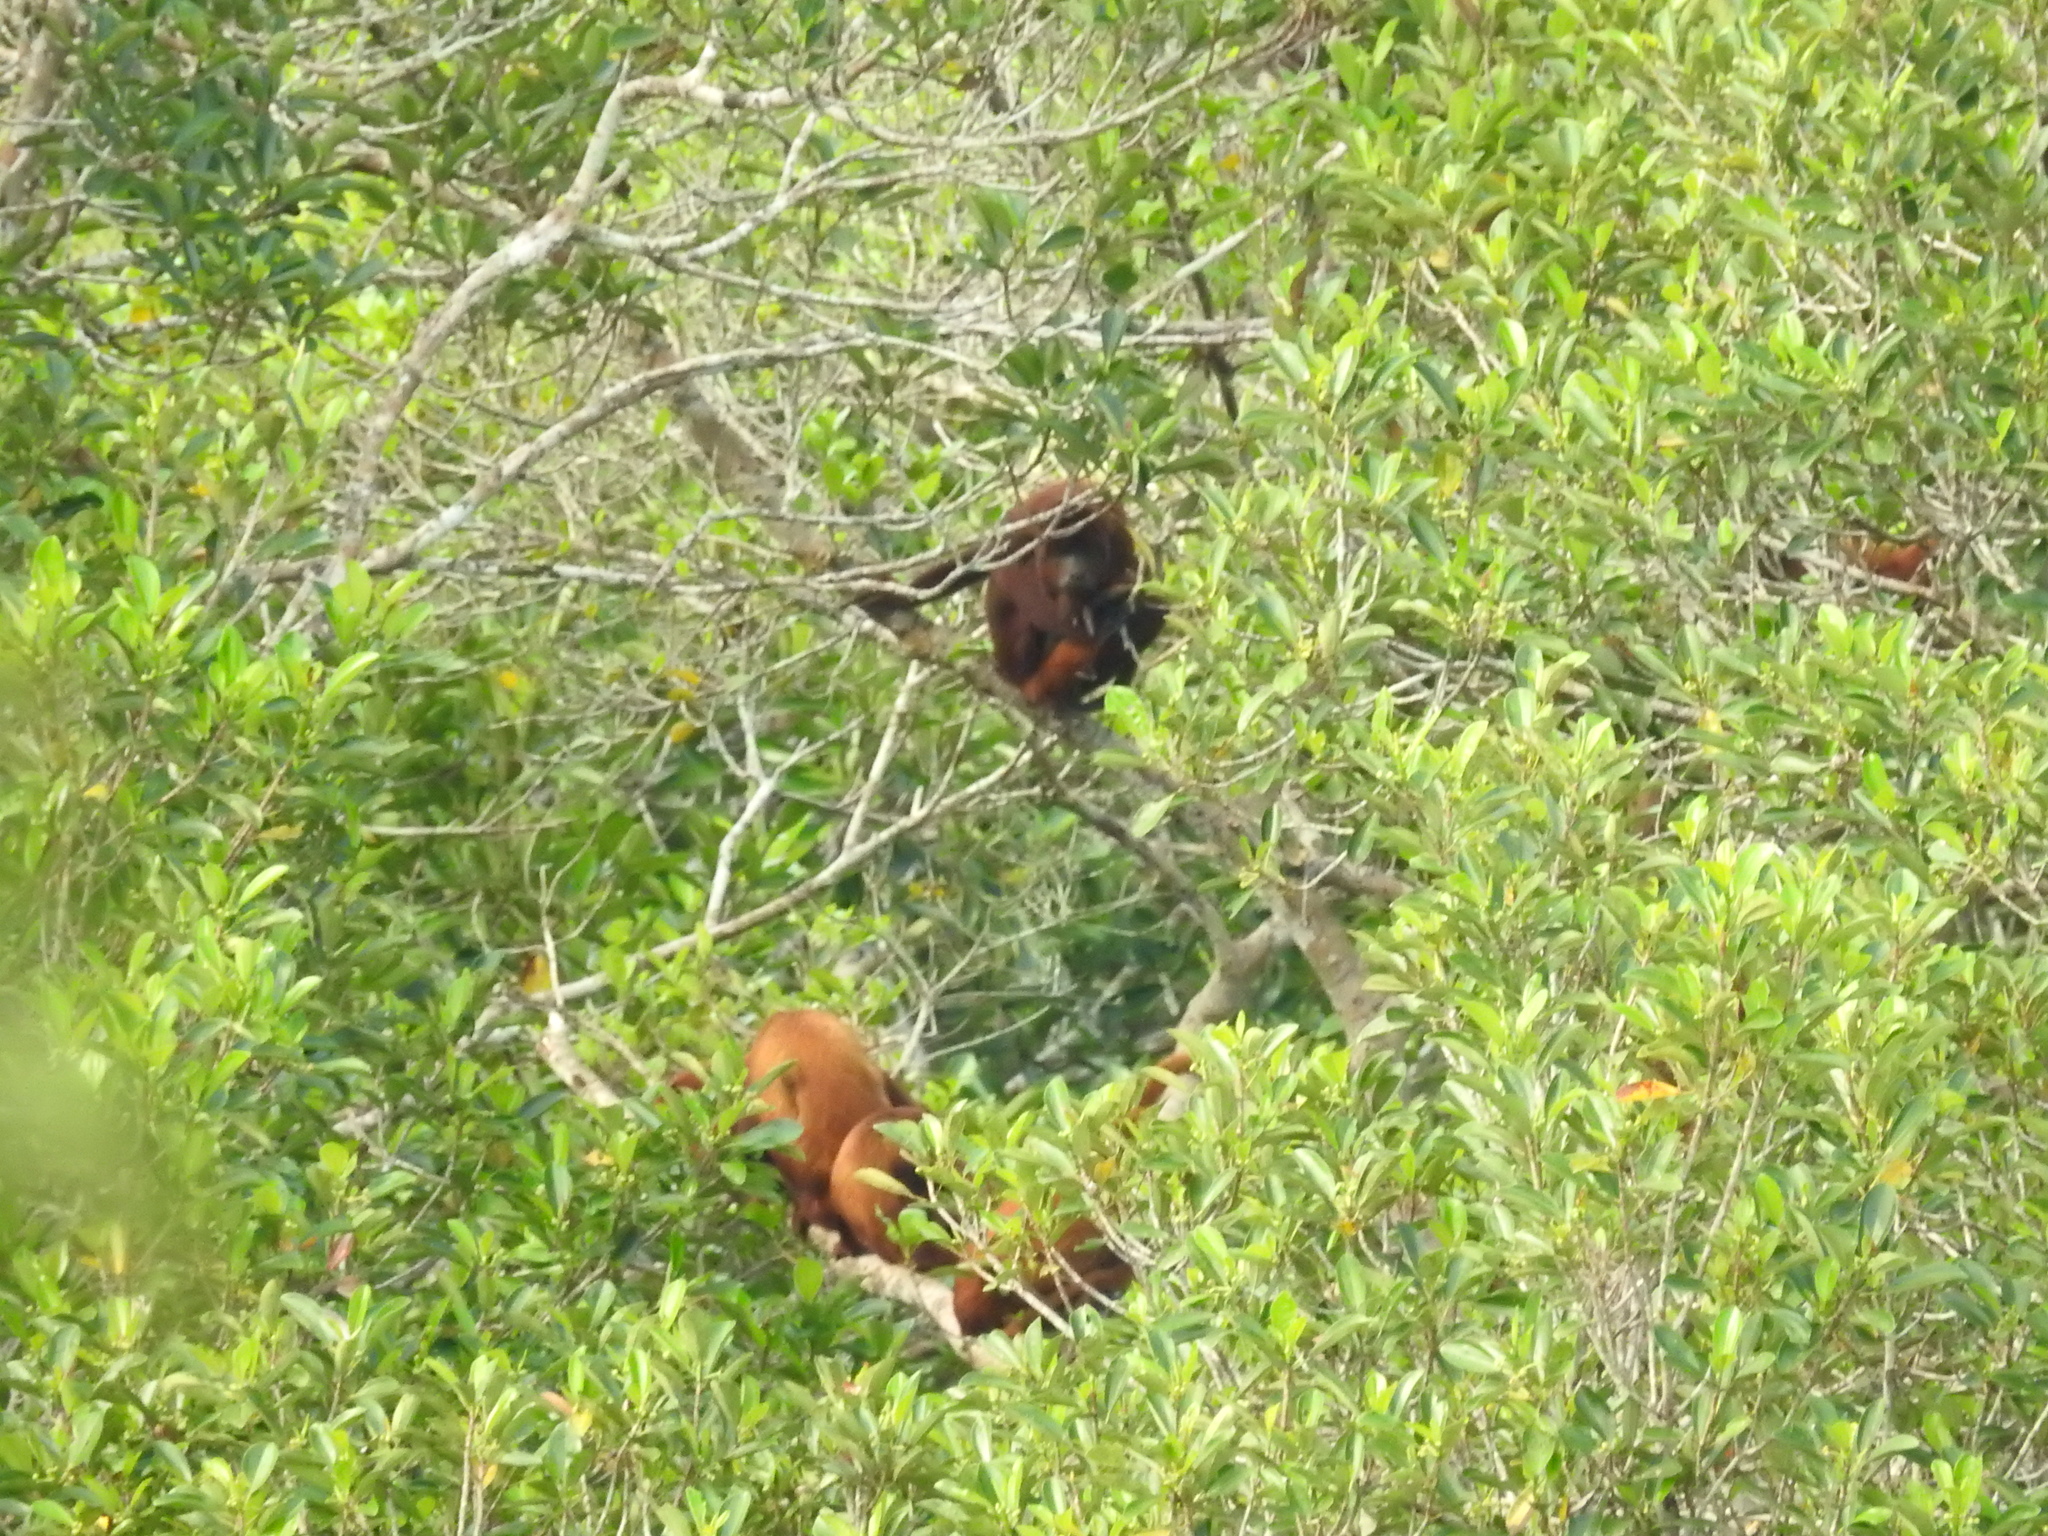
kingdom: Animalia
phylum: Chordata
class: Mammalia
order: Primates
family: Atelidae
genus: Alouatta
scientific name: Alouatta seniculus
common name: Venezuelan red howler
